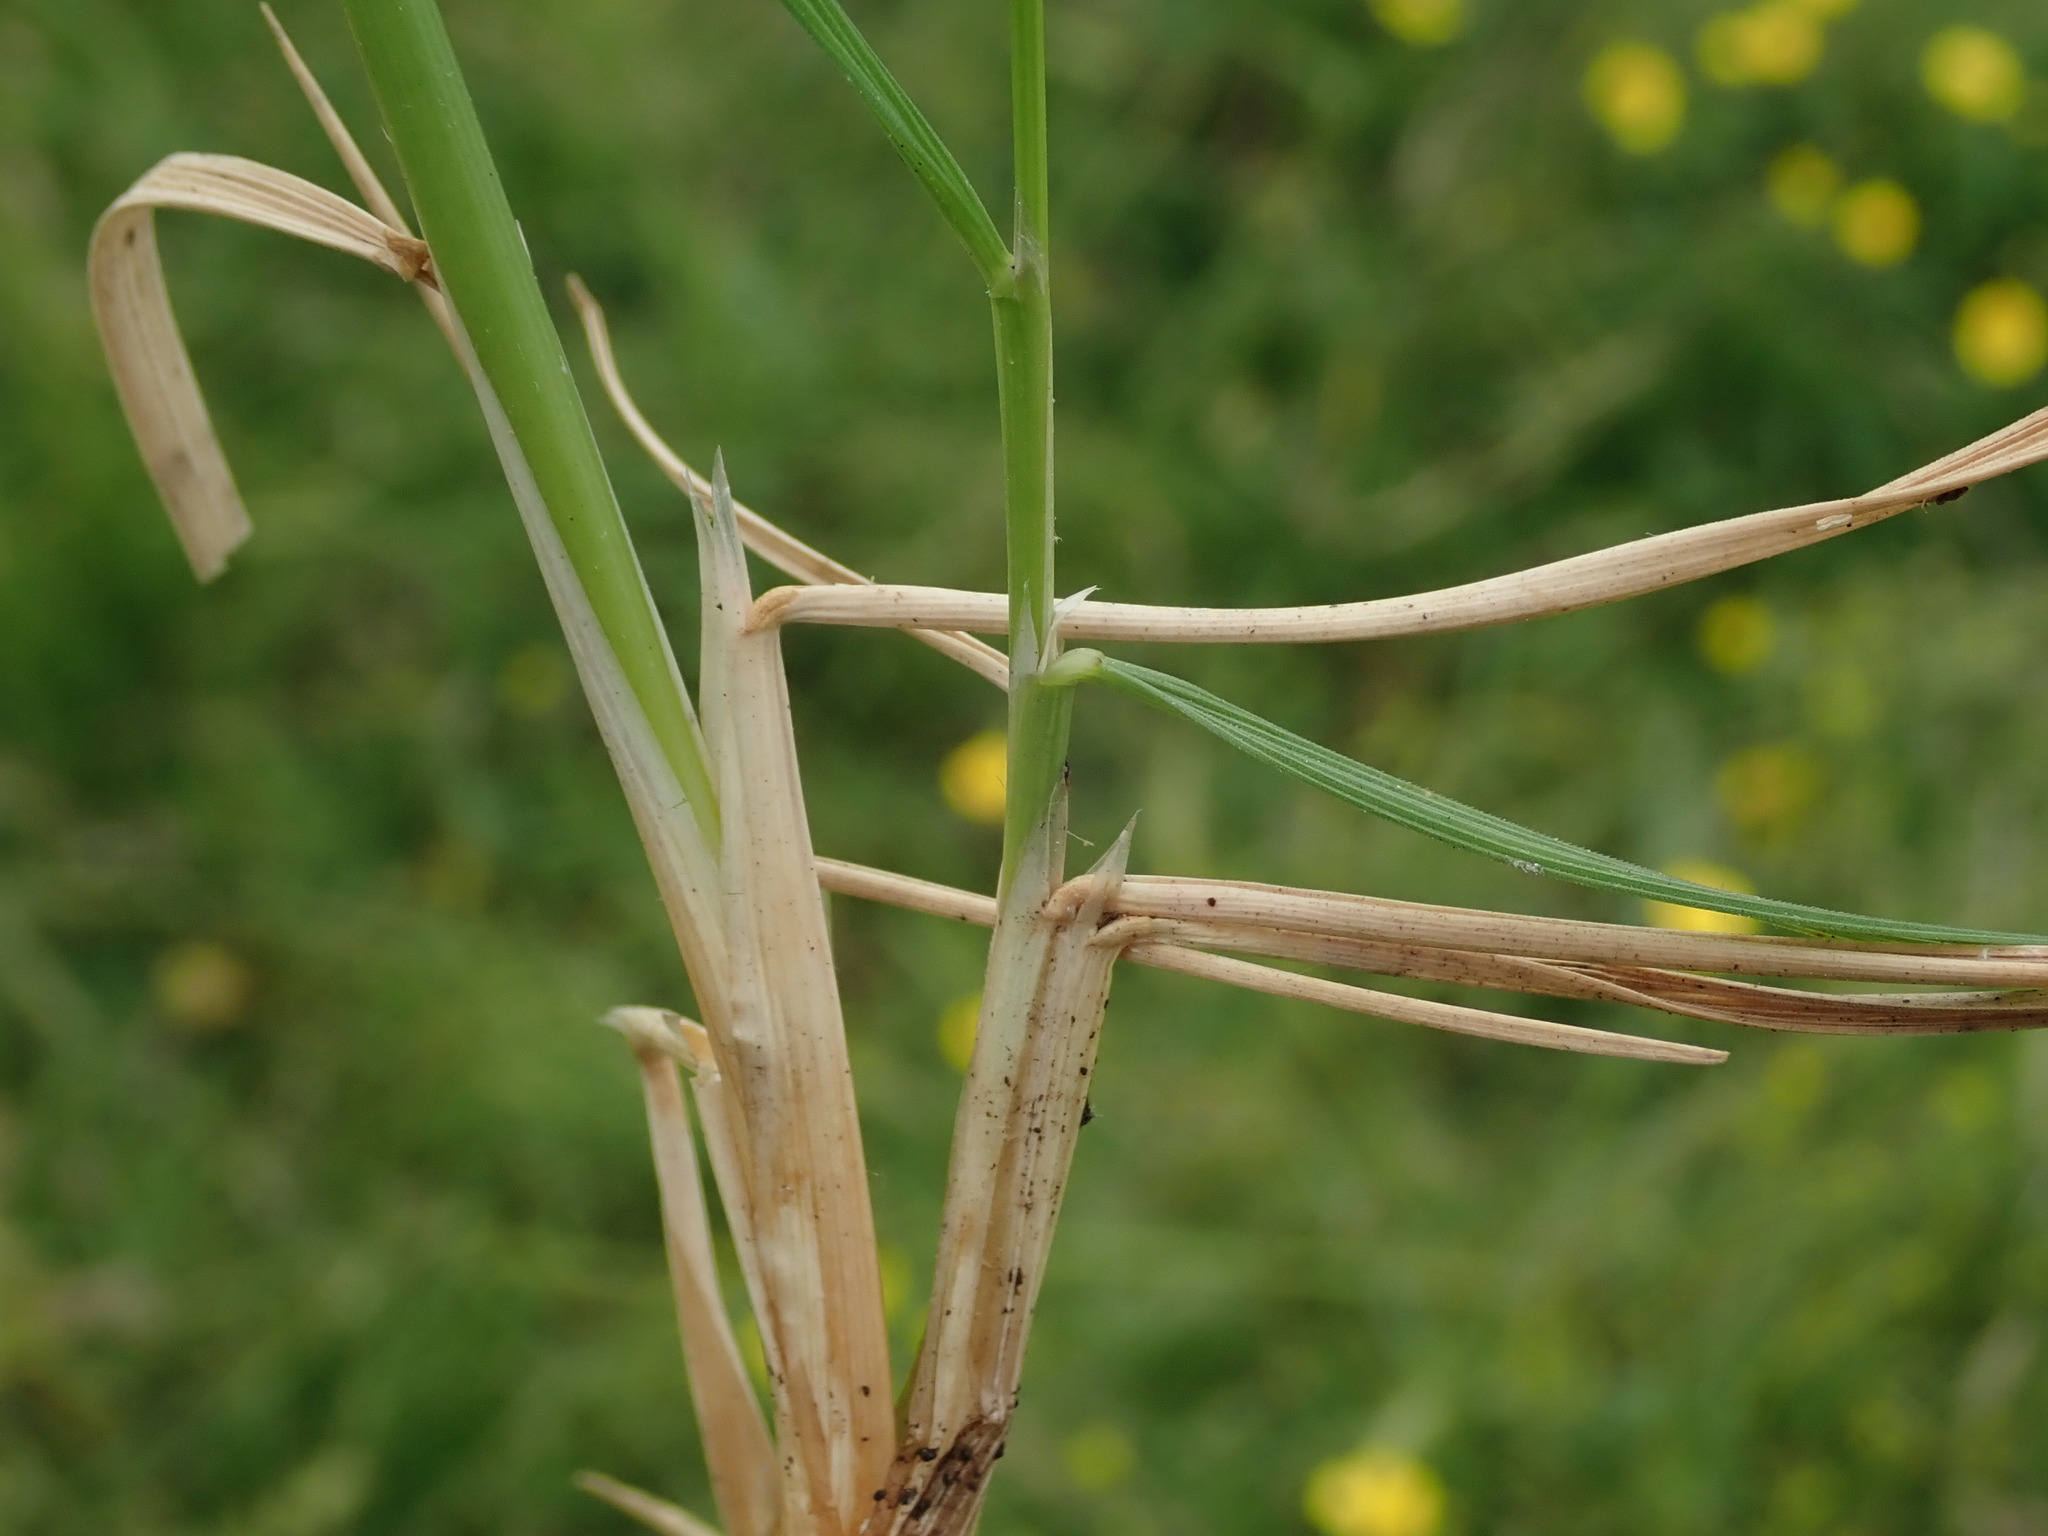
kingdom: Plantae
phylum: Tracheophyta
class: Liliopsida
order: Poales
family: Poaceae
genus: Deschampsia
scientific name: Deschampsia cespitosa
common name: Tufted hair-grass
